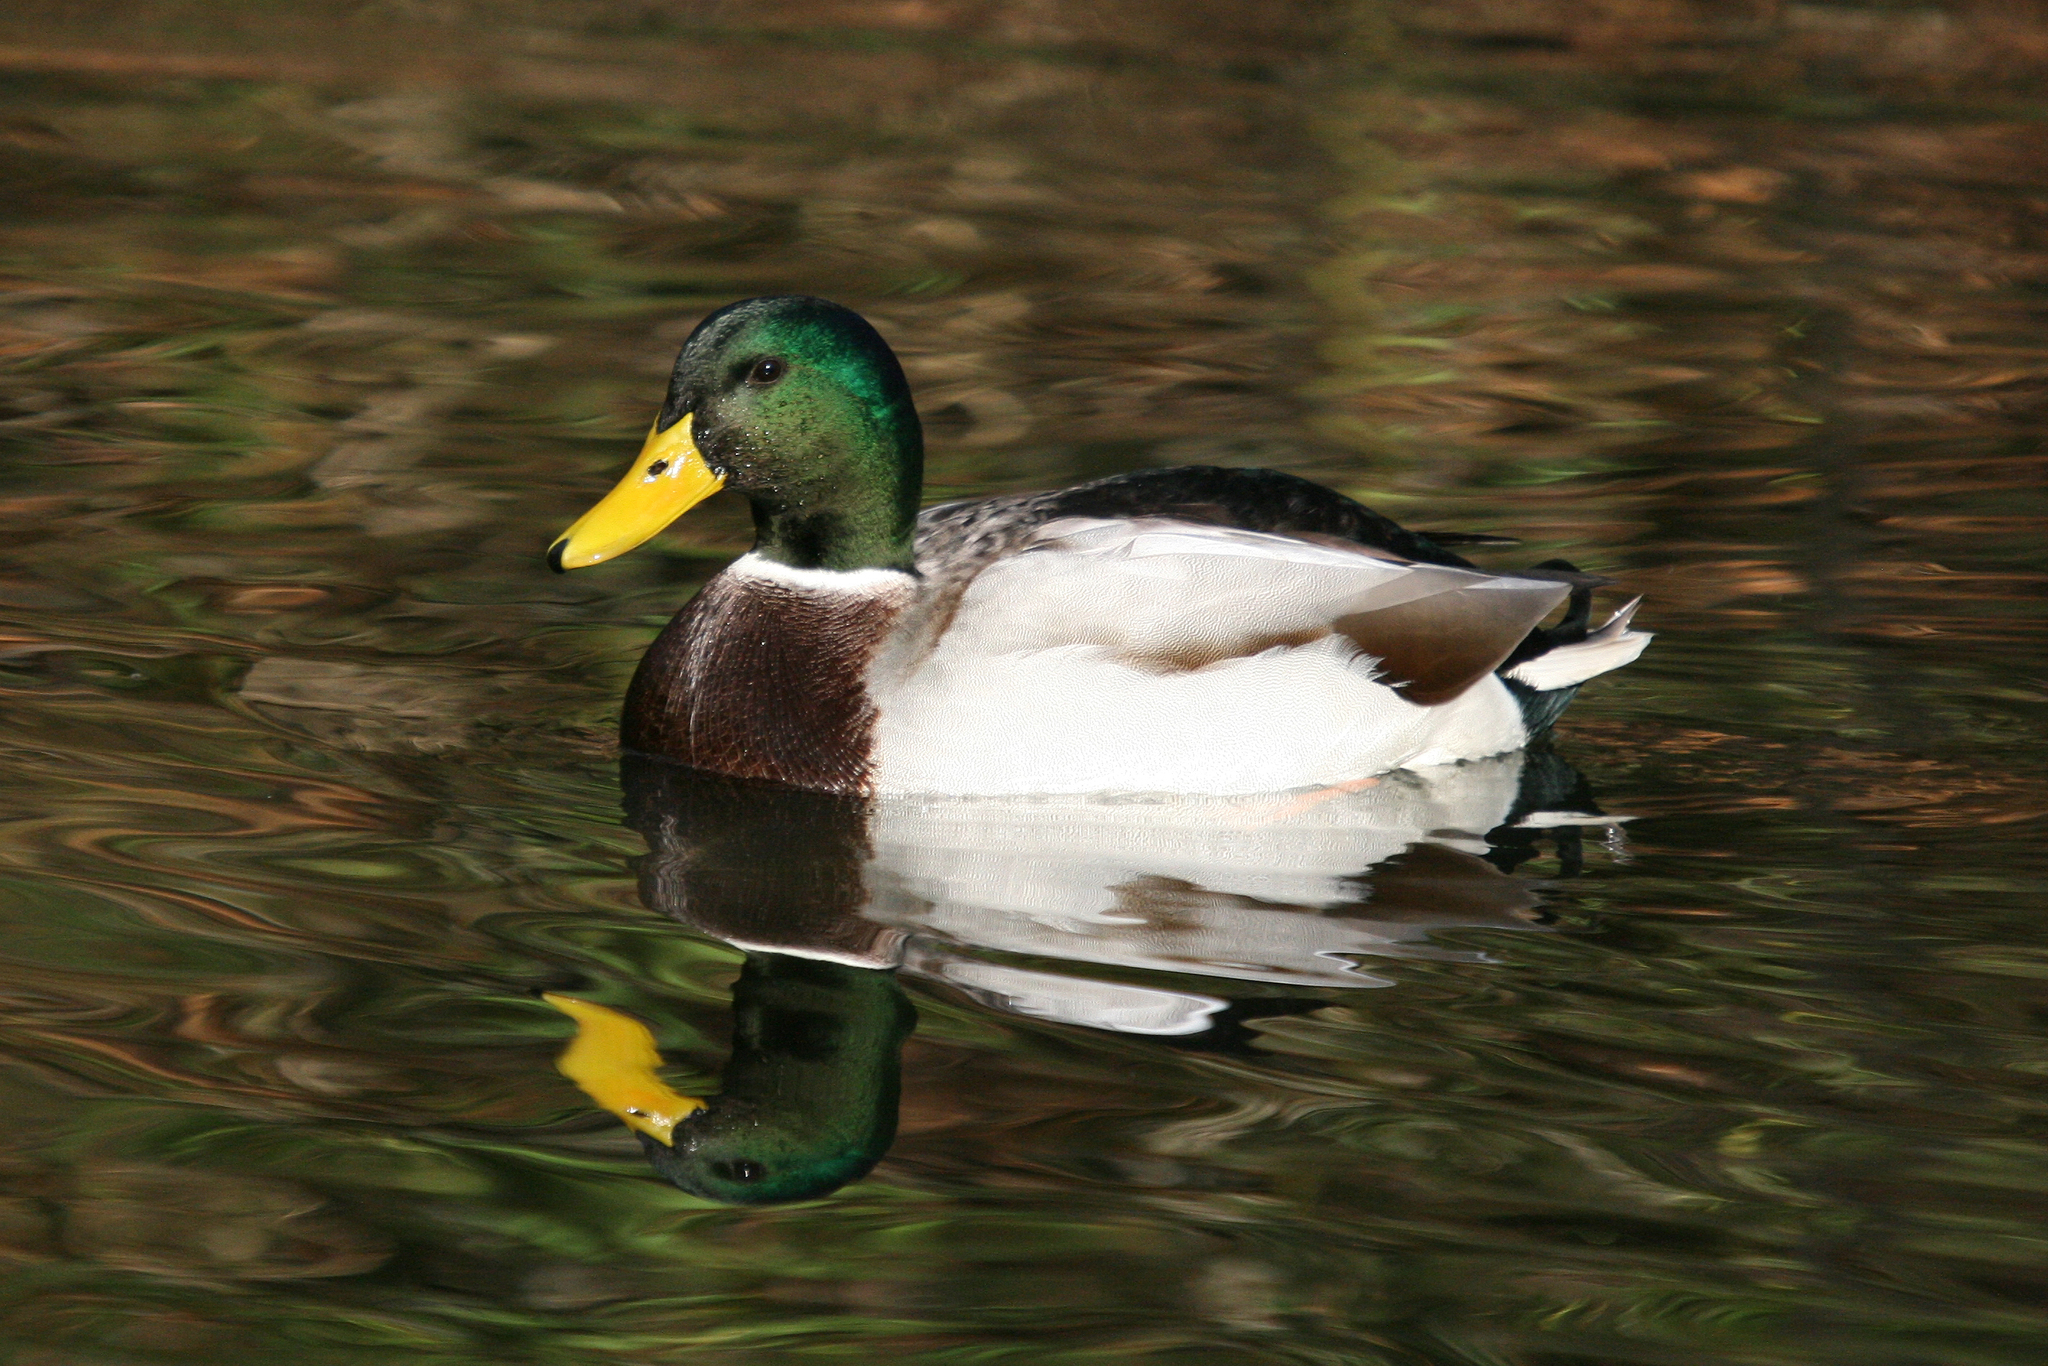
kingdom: Animalia
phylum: Chordata
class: Aves
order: Anseriformes
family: Anatidae
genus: Anas
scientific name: Anas platyrhynchos
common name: Mallard
